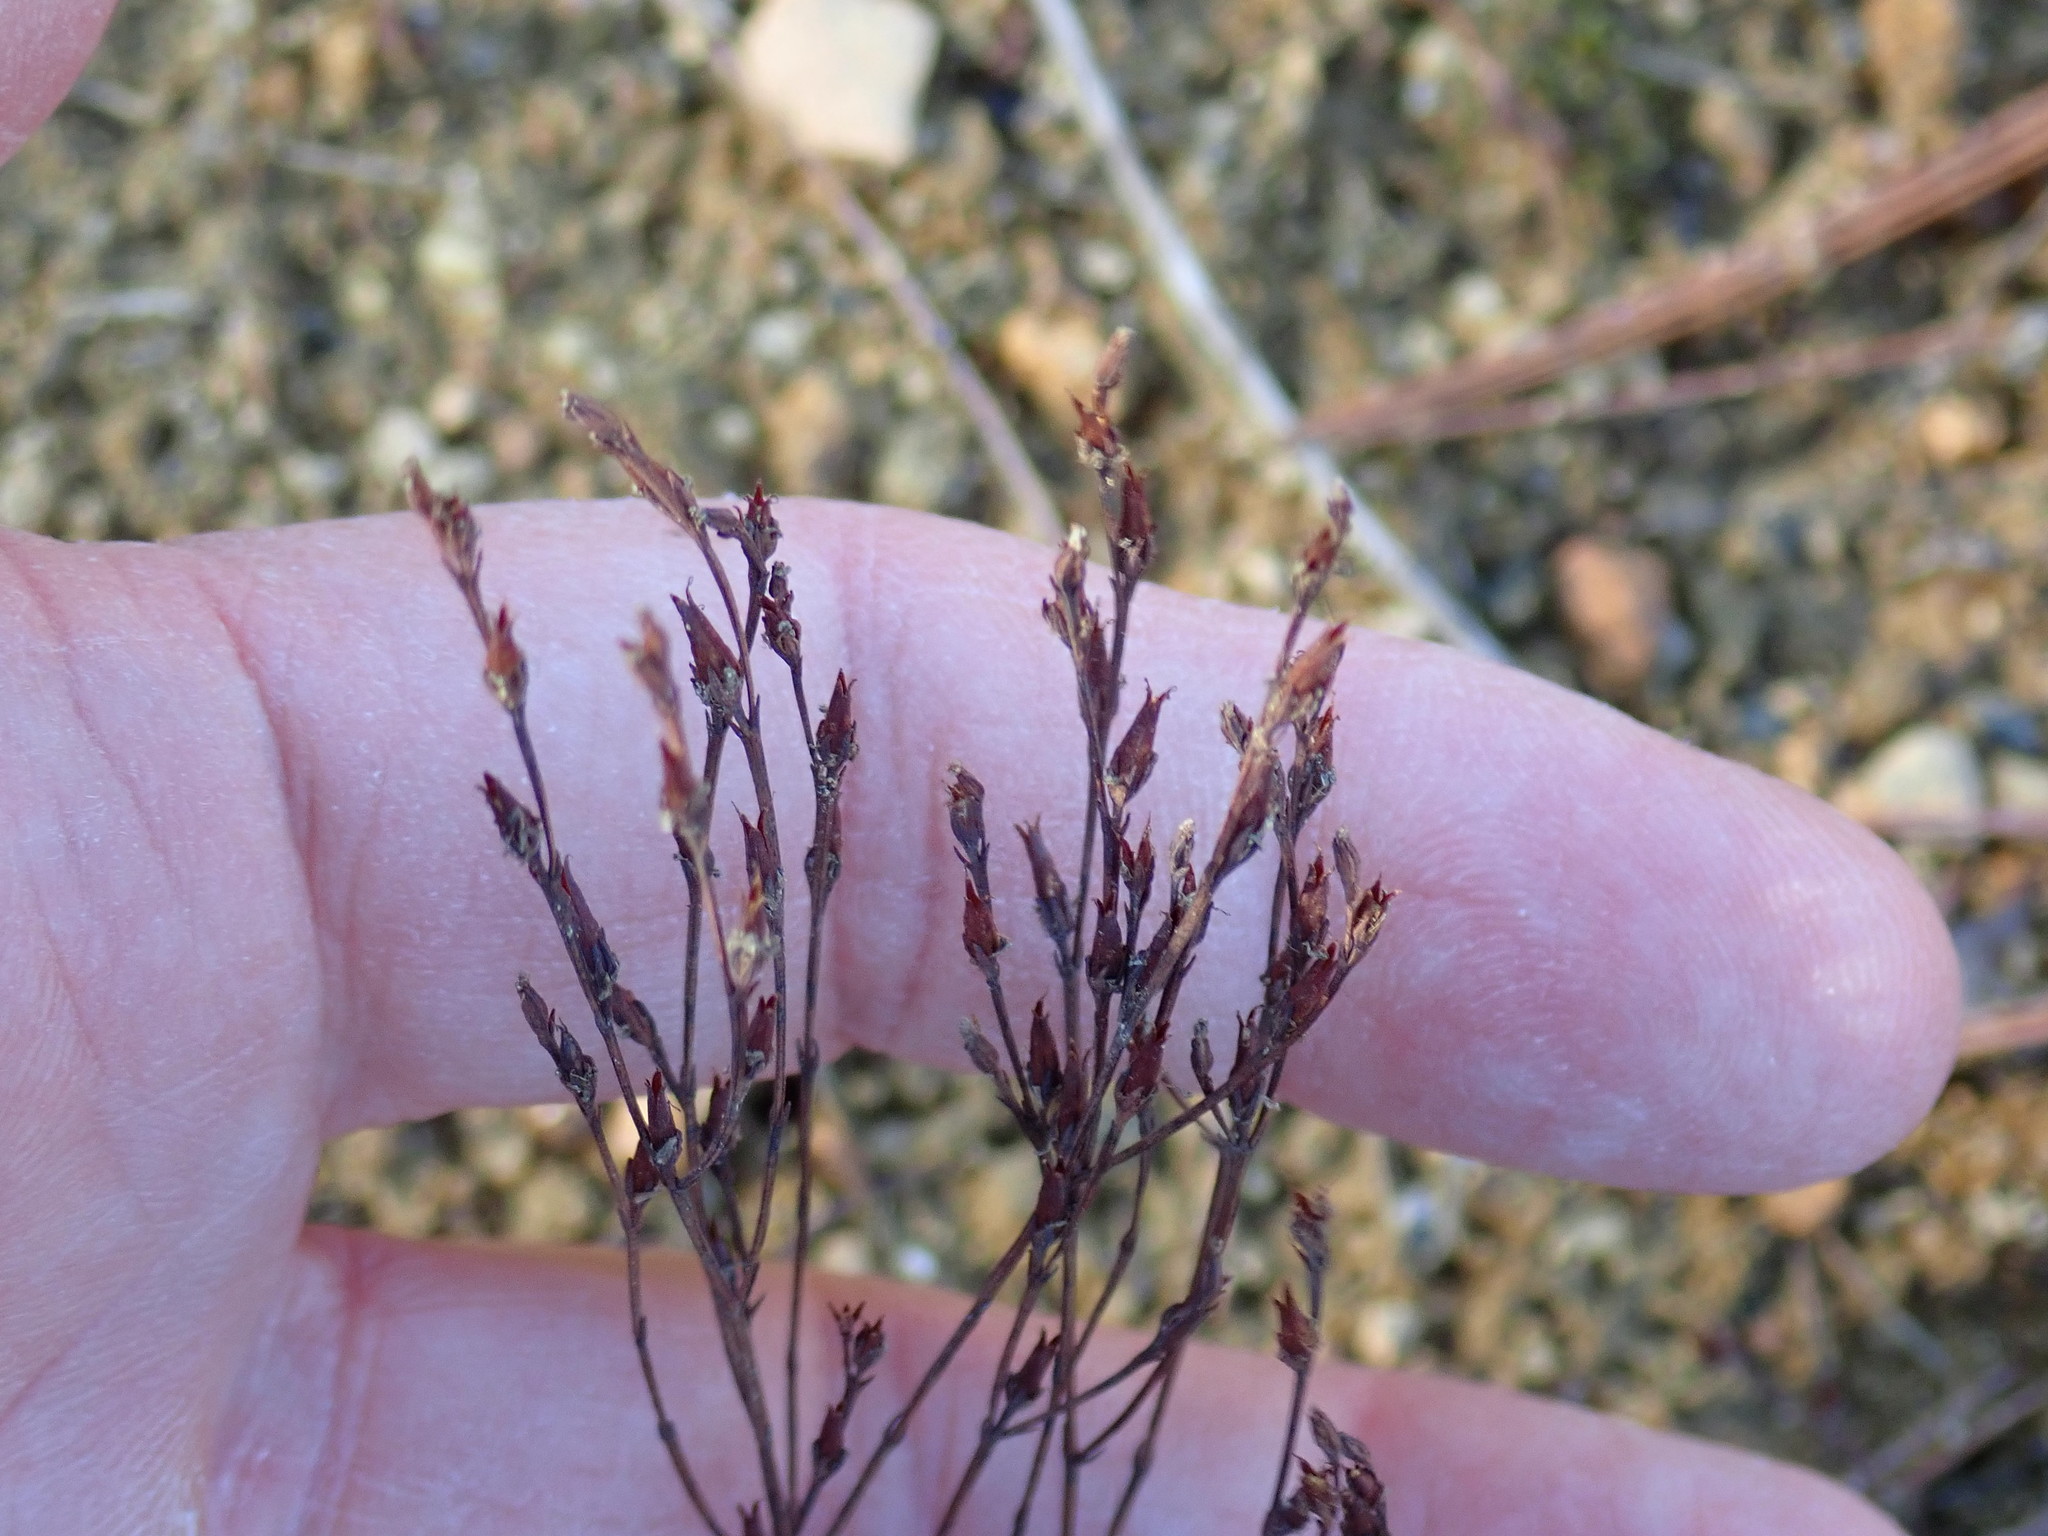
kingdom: Plantae
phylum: Tracheophyta
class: Magnoliopsida
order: Malpighiales
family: Hypericaceae
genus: Hypericum
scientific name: Hypericum gentianoides
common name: Gentian-leaved st. john's-wort
